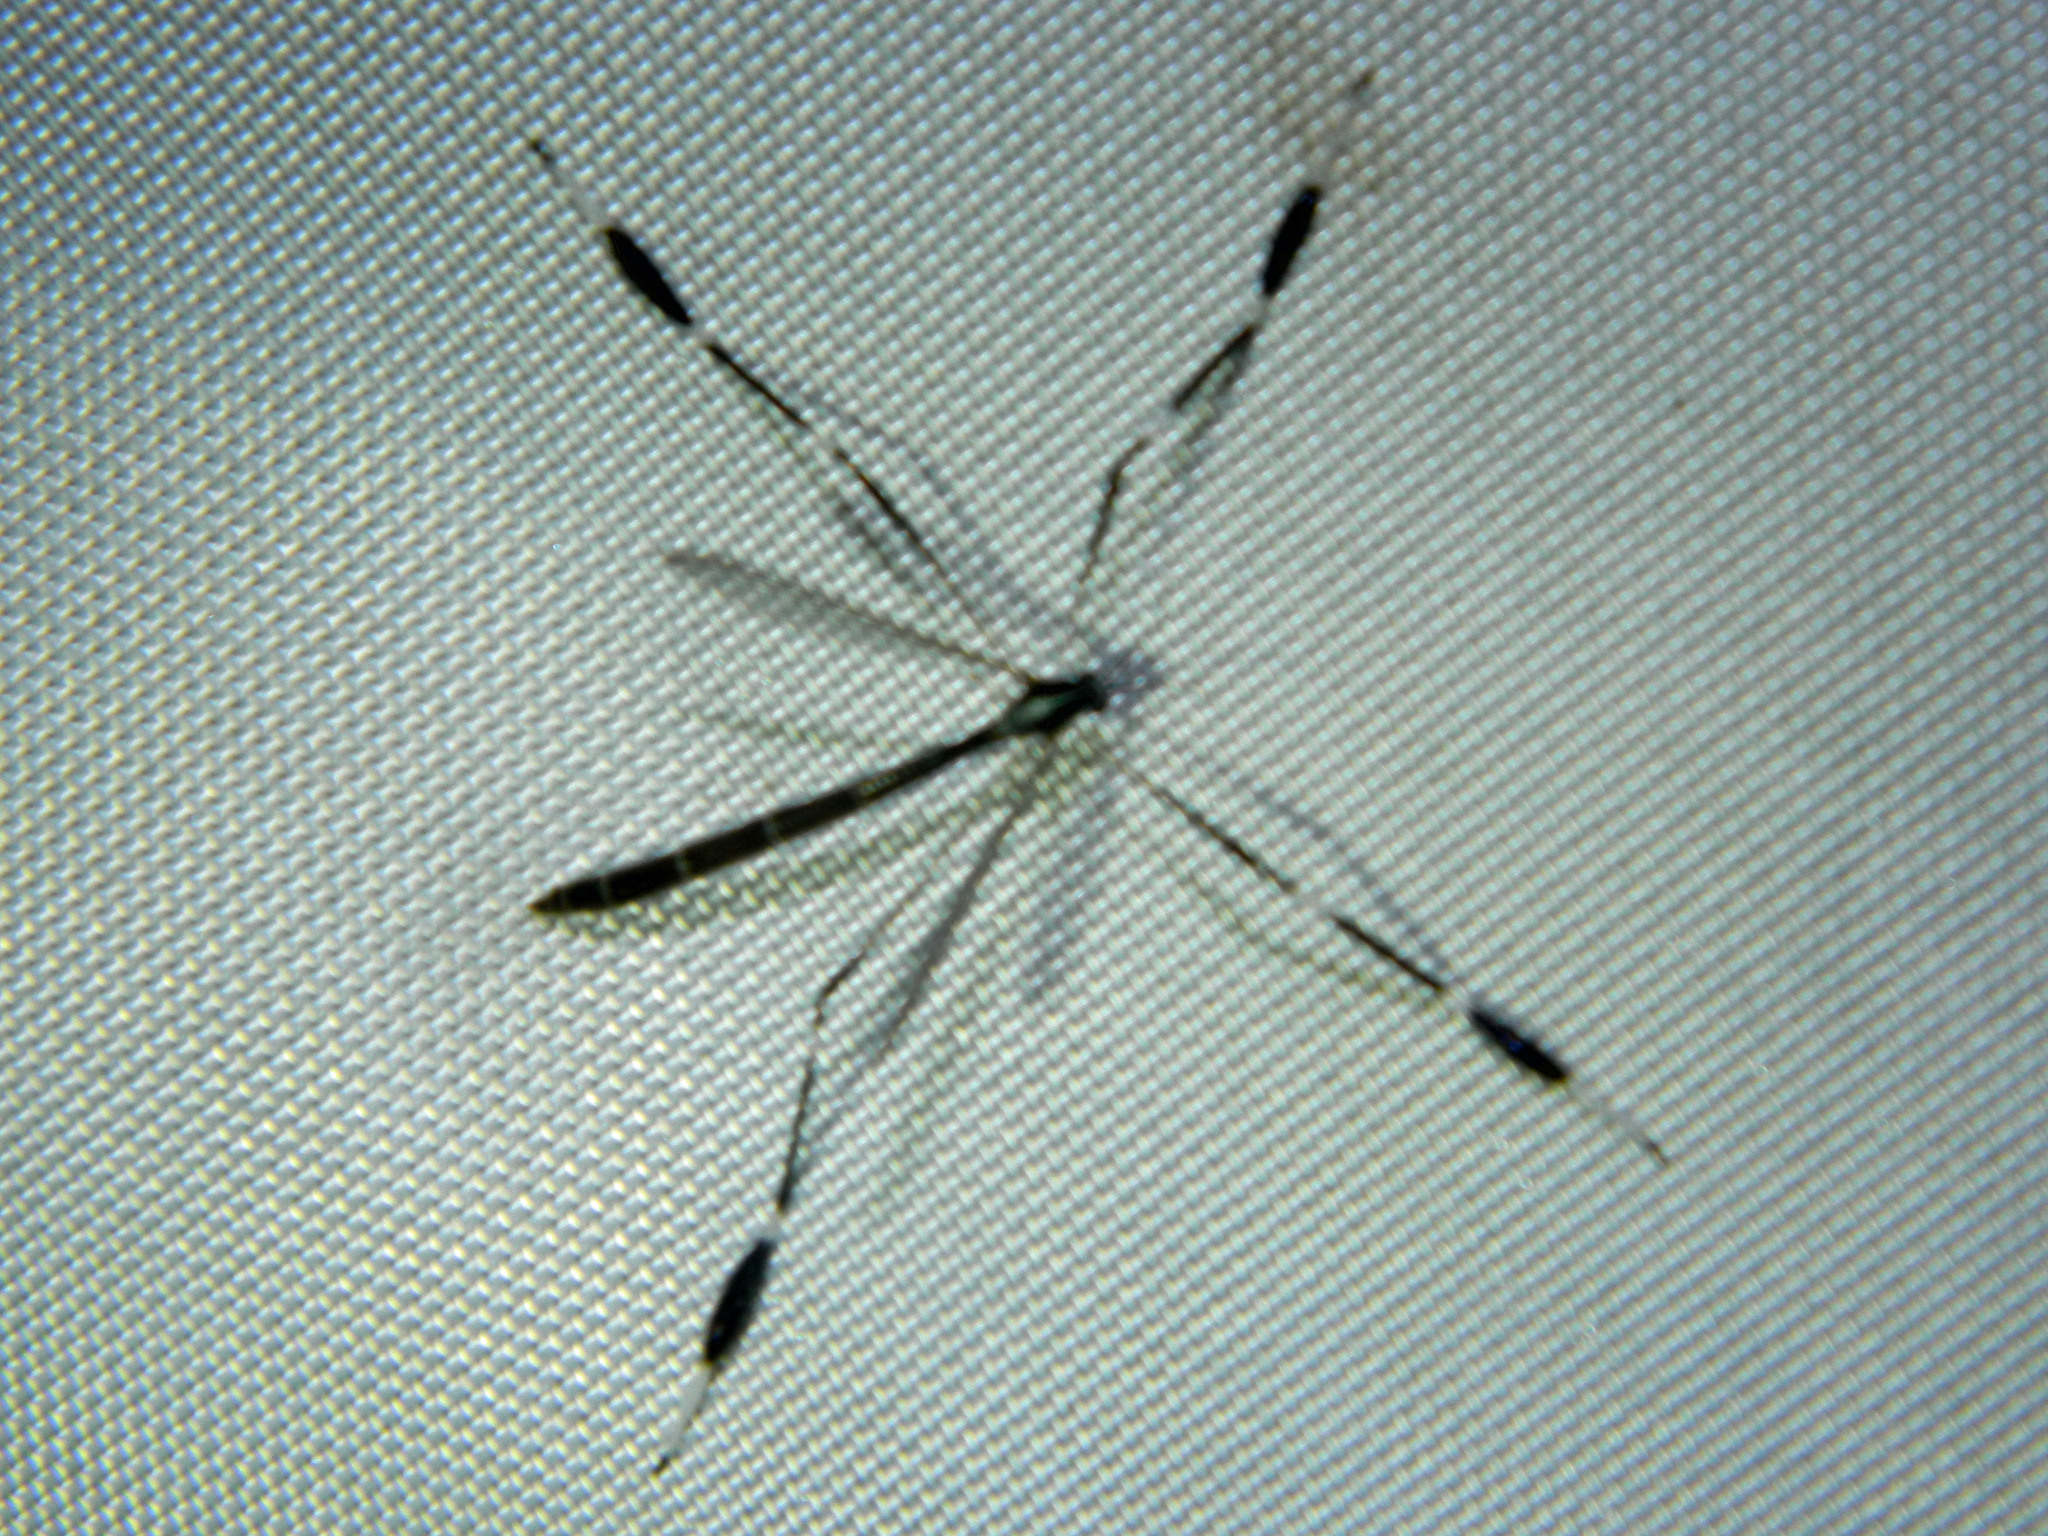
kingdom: Animalia
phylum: Arthropoda
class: Insecta
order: Diptera
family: Ptychopteridae
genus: Bittacomorpha
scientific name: Bittacomorpha clavipes
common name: Eastern phantom crane fly
